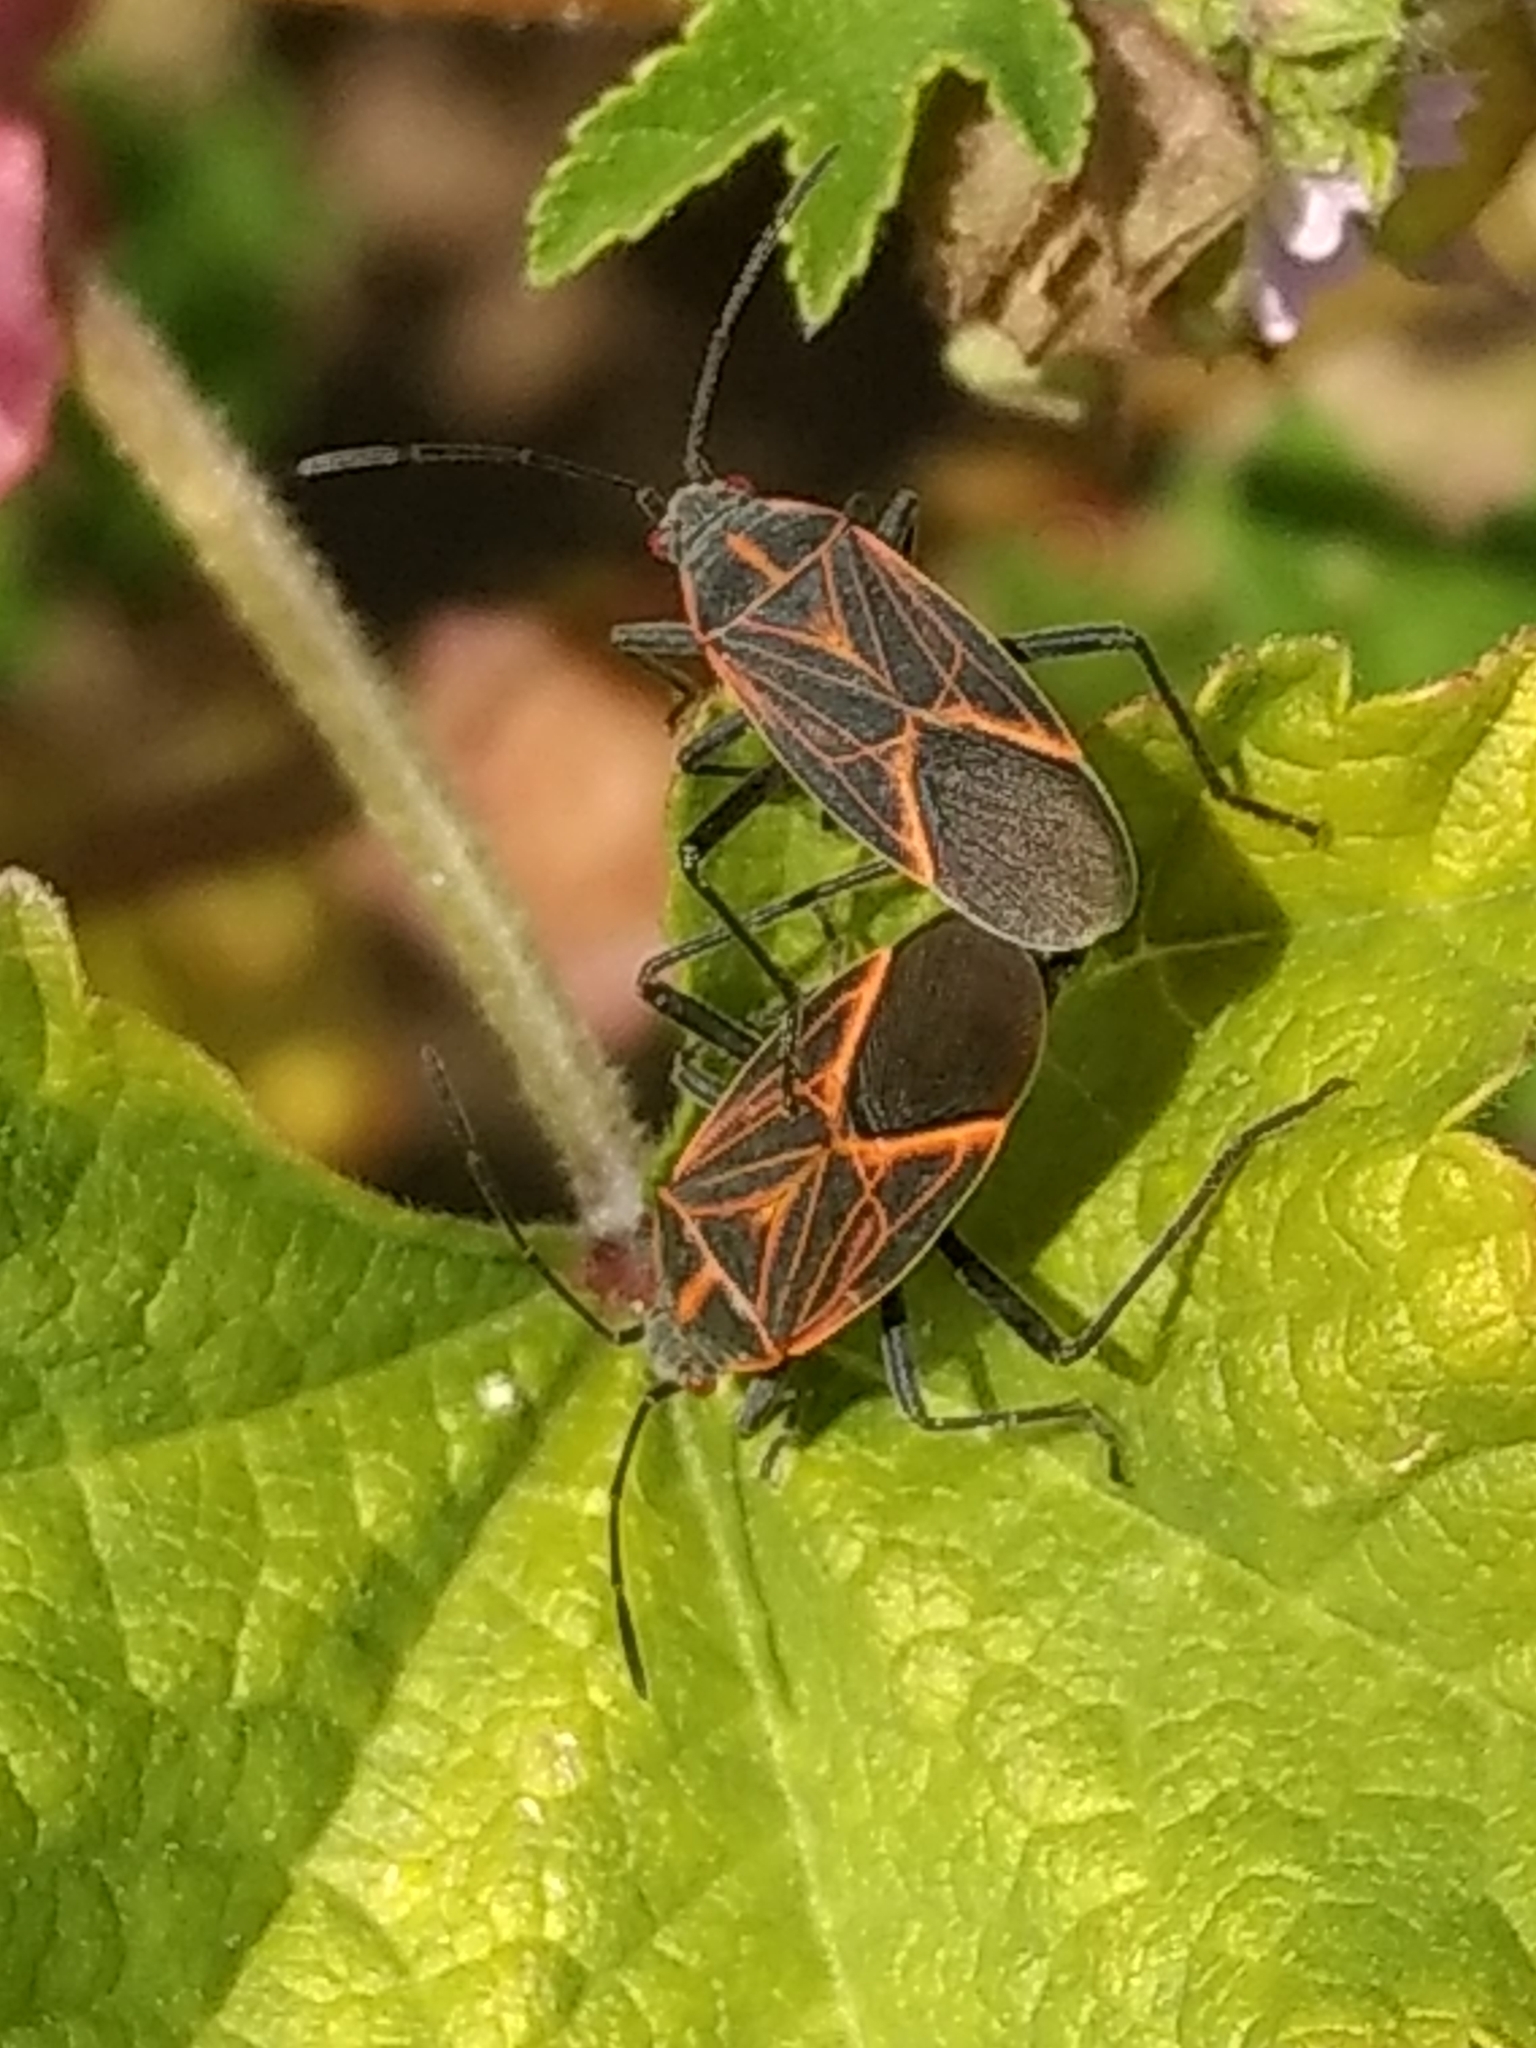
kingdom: Animalia
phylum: Arthropoda
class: Insecta
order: Hemiptera
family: Rhopalidae
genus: Boisea
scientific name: Boisea rubrolineata
